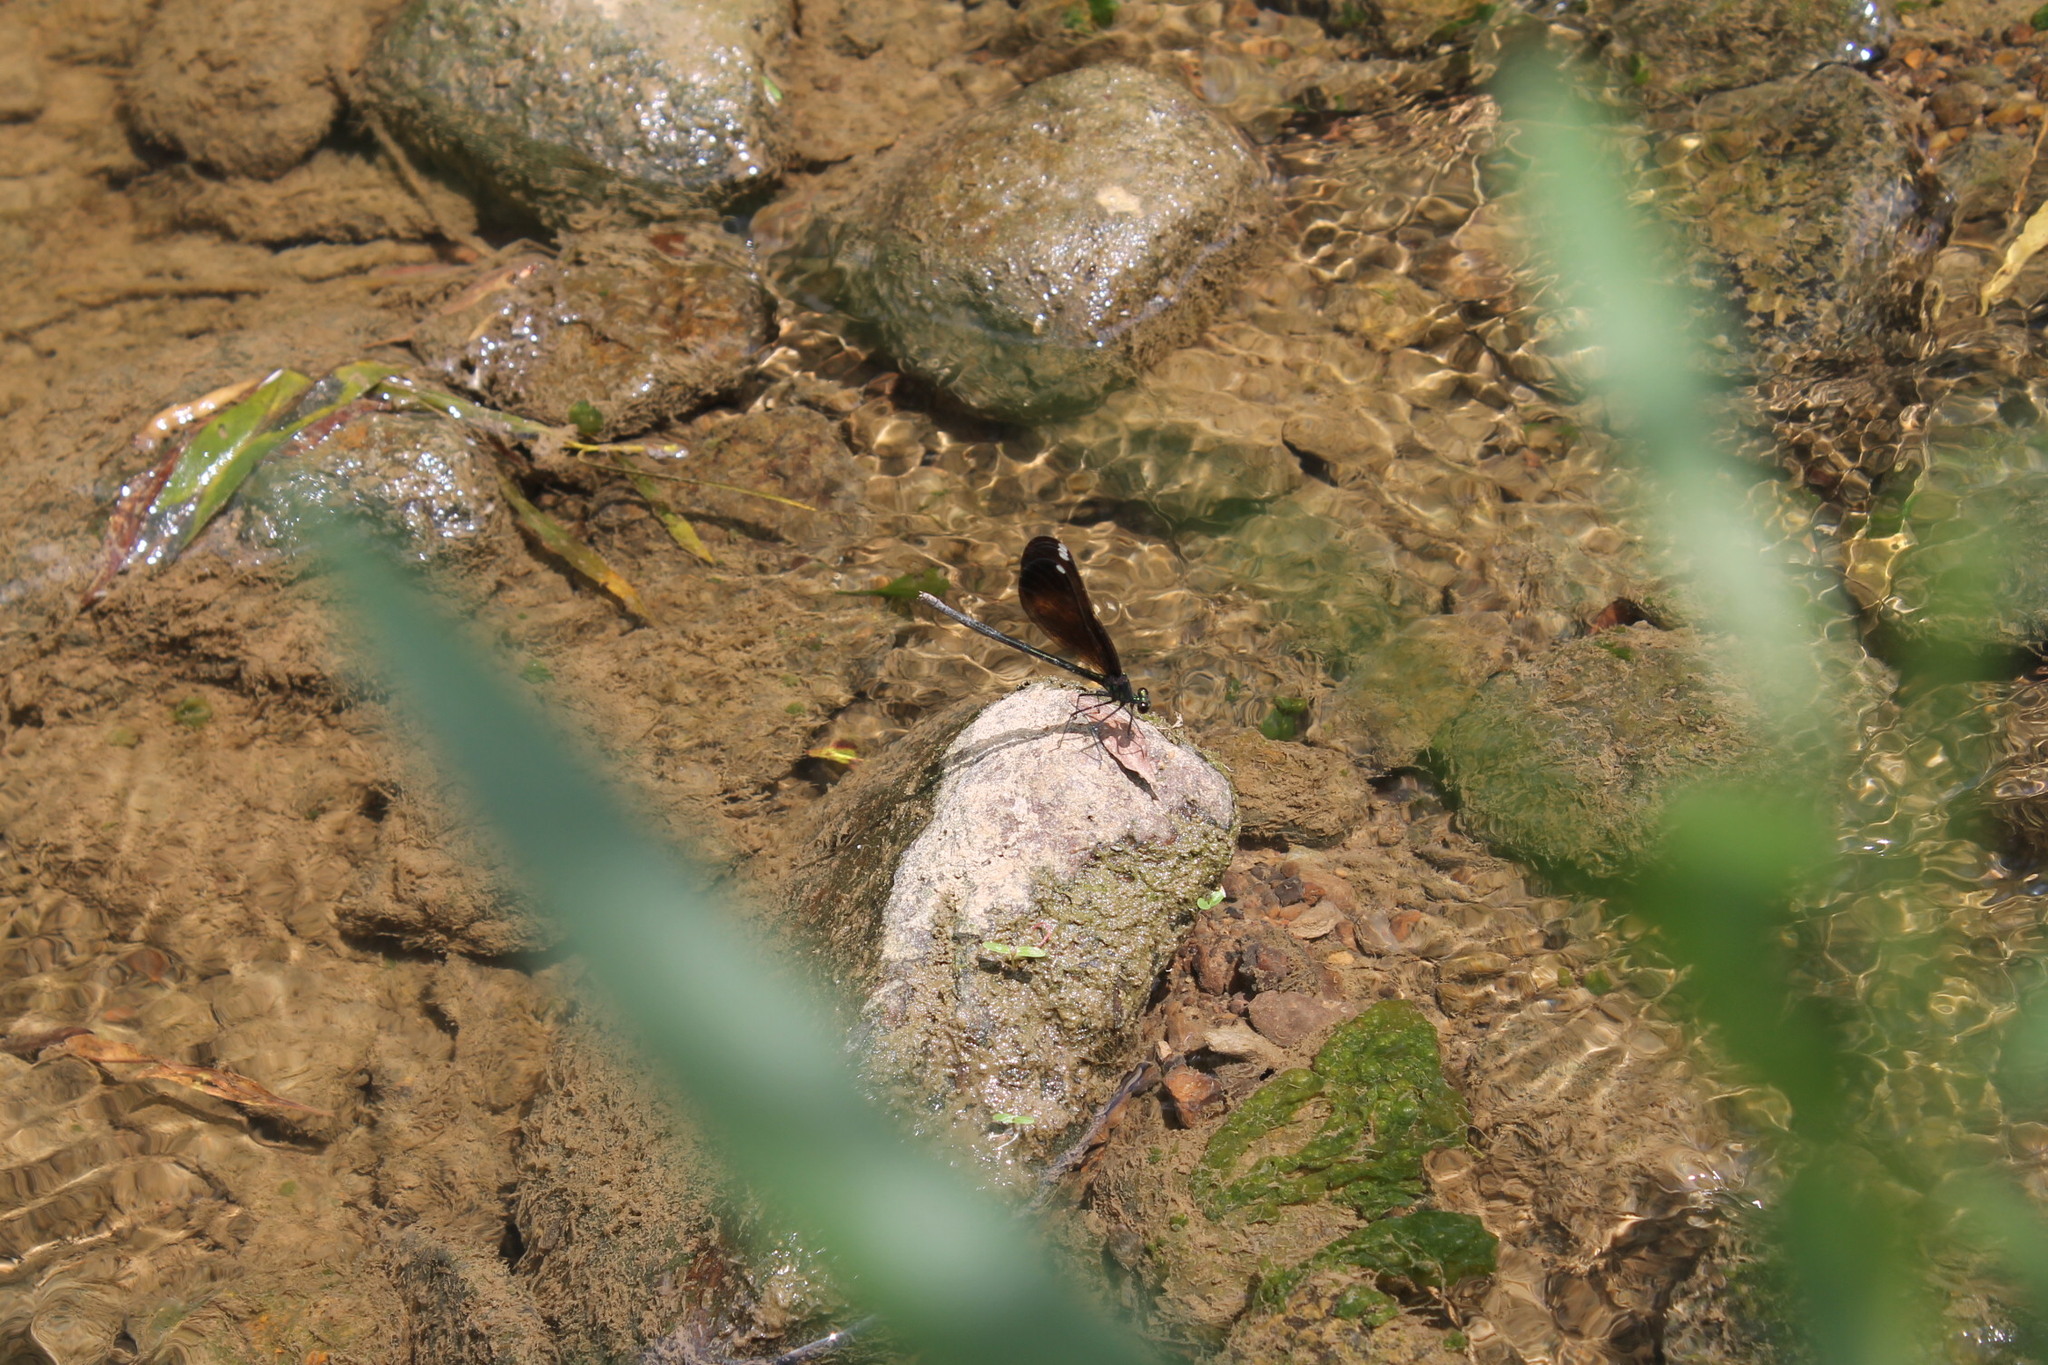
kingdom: Animalia
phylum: Arthropoda
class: Insecta
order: Odonata
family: Calopterygidae
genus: Calopteryx
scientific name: Calopteryx maculata
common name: Ebony jewelwing
